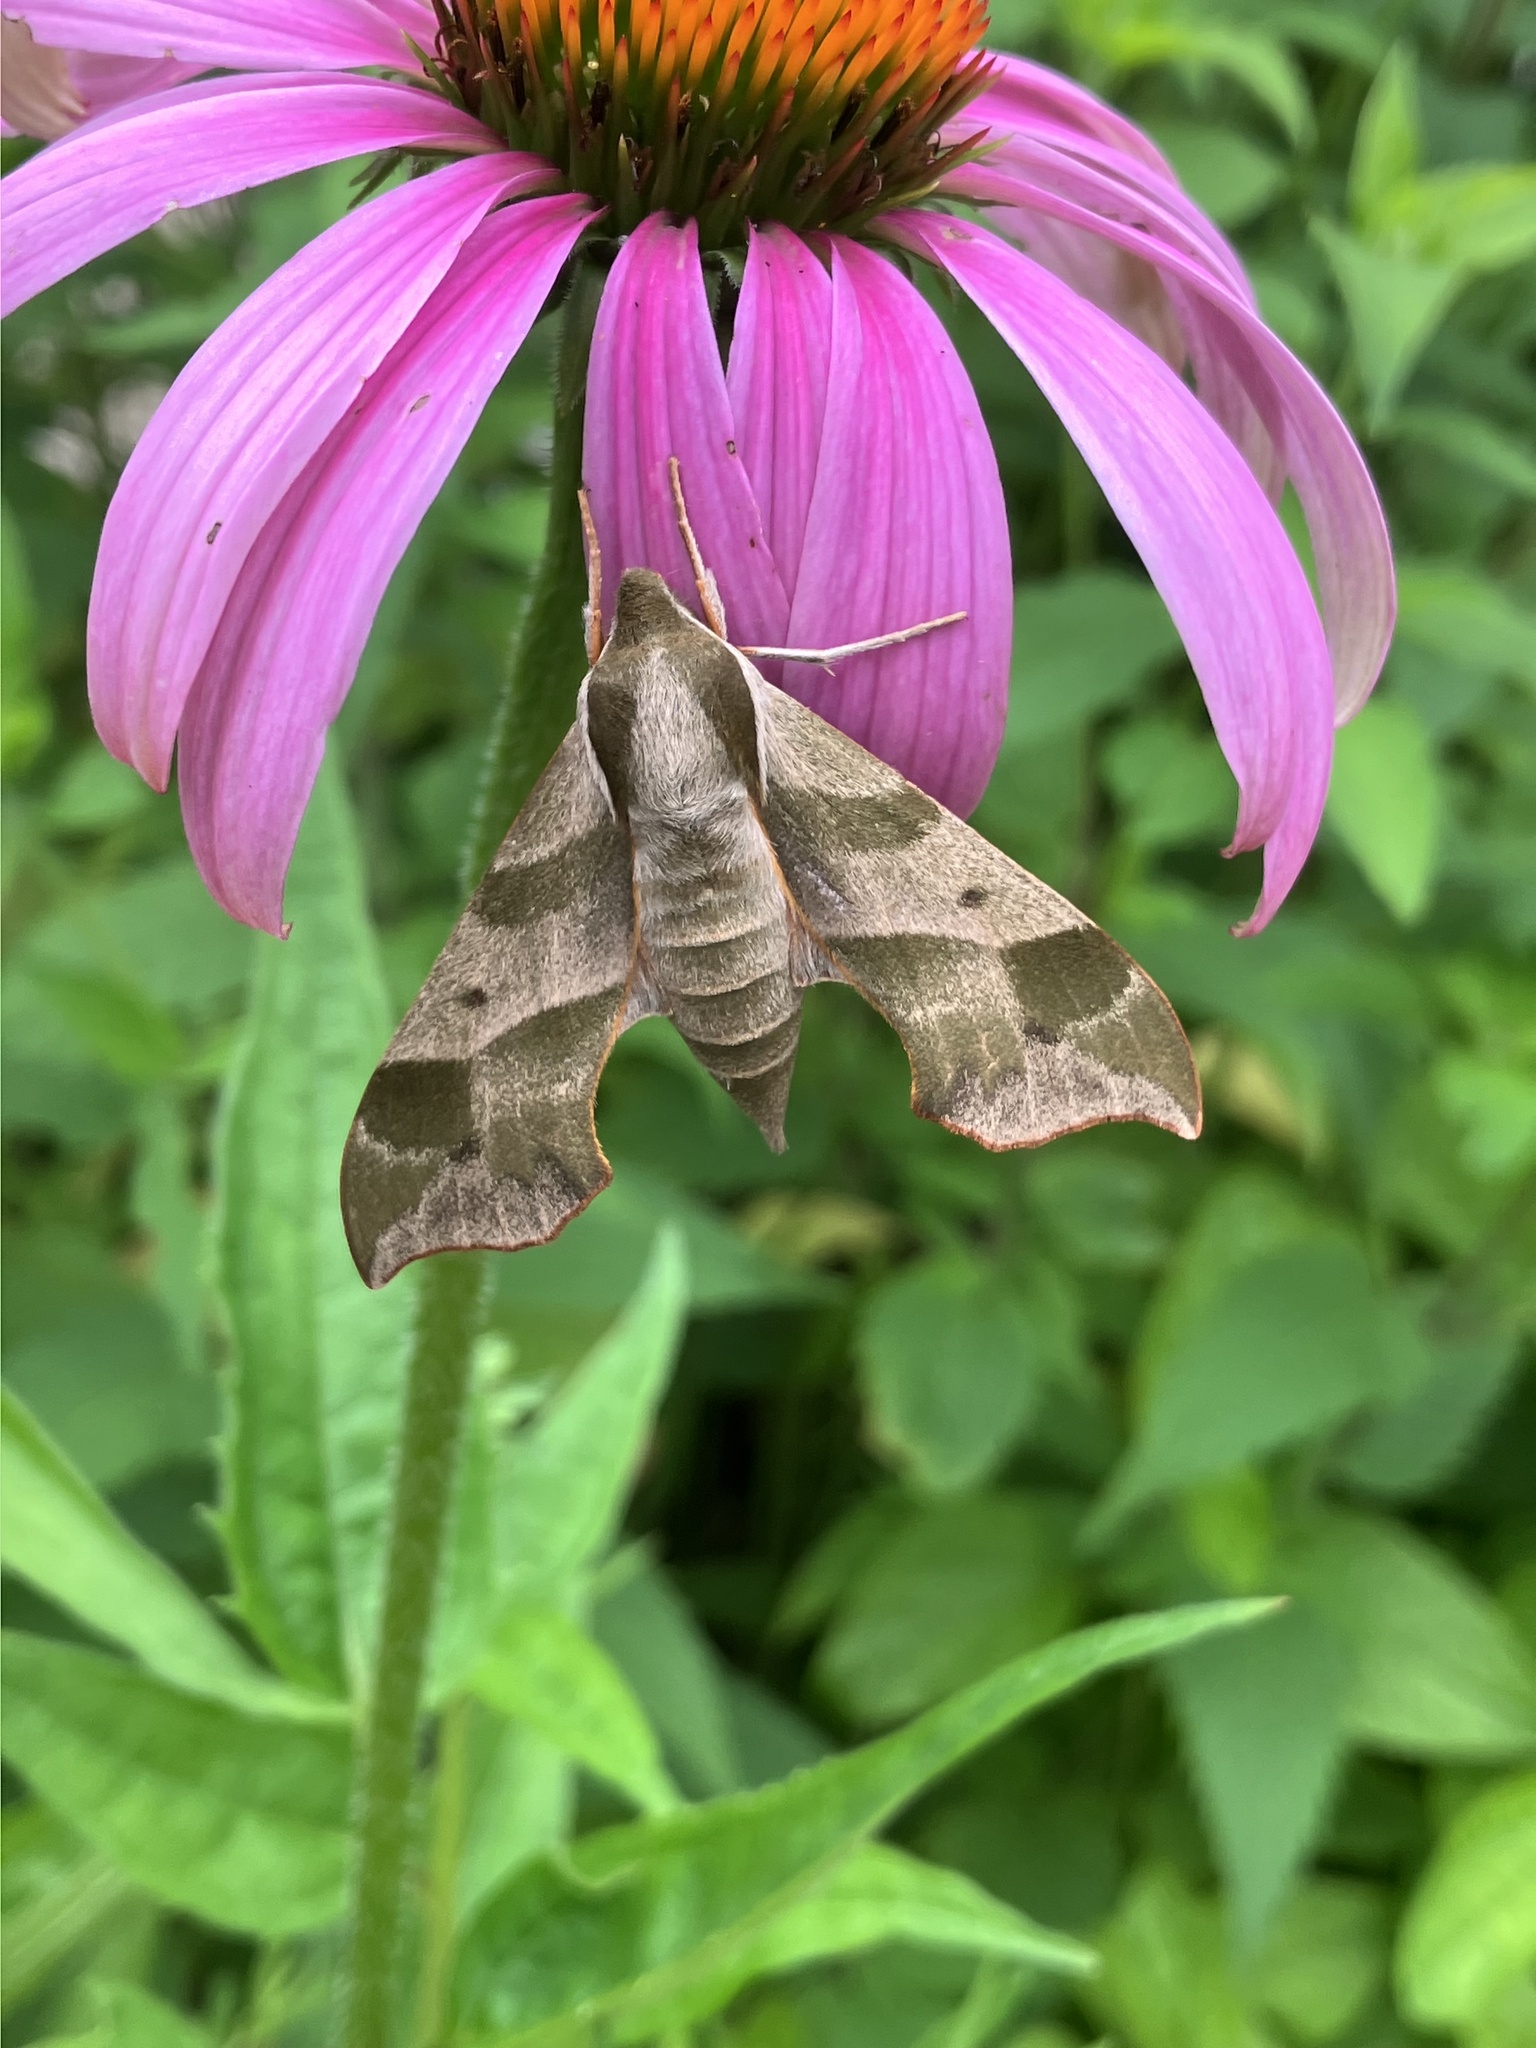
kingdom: Animalia
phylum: Arthropoda
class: Insecta
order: Lepidoptera
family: Sphingidae
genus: Darapsa
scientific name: Darapsa myron
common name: Hog sphinx
